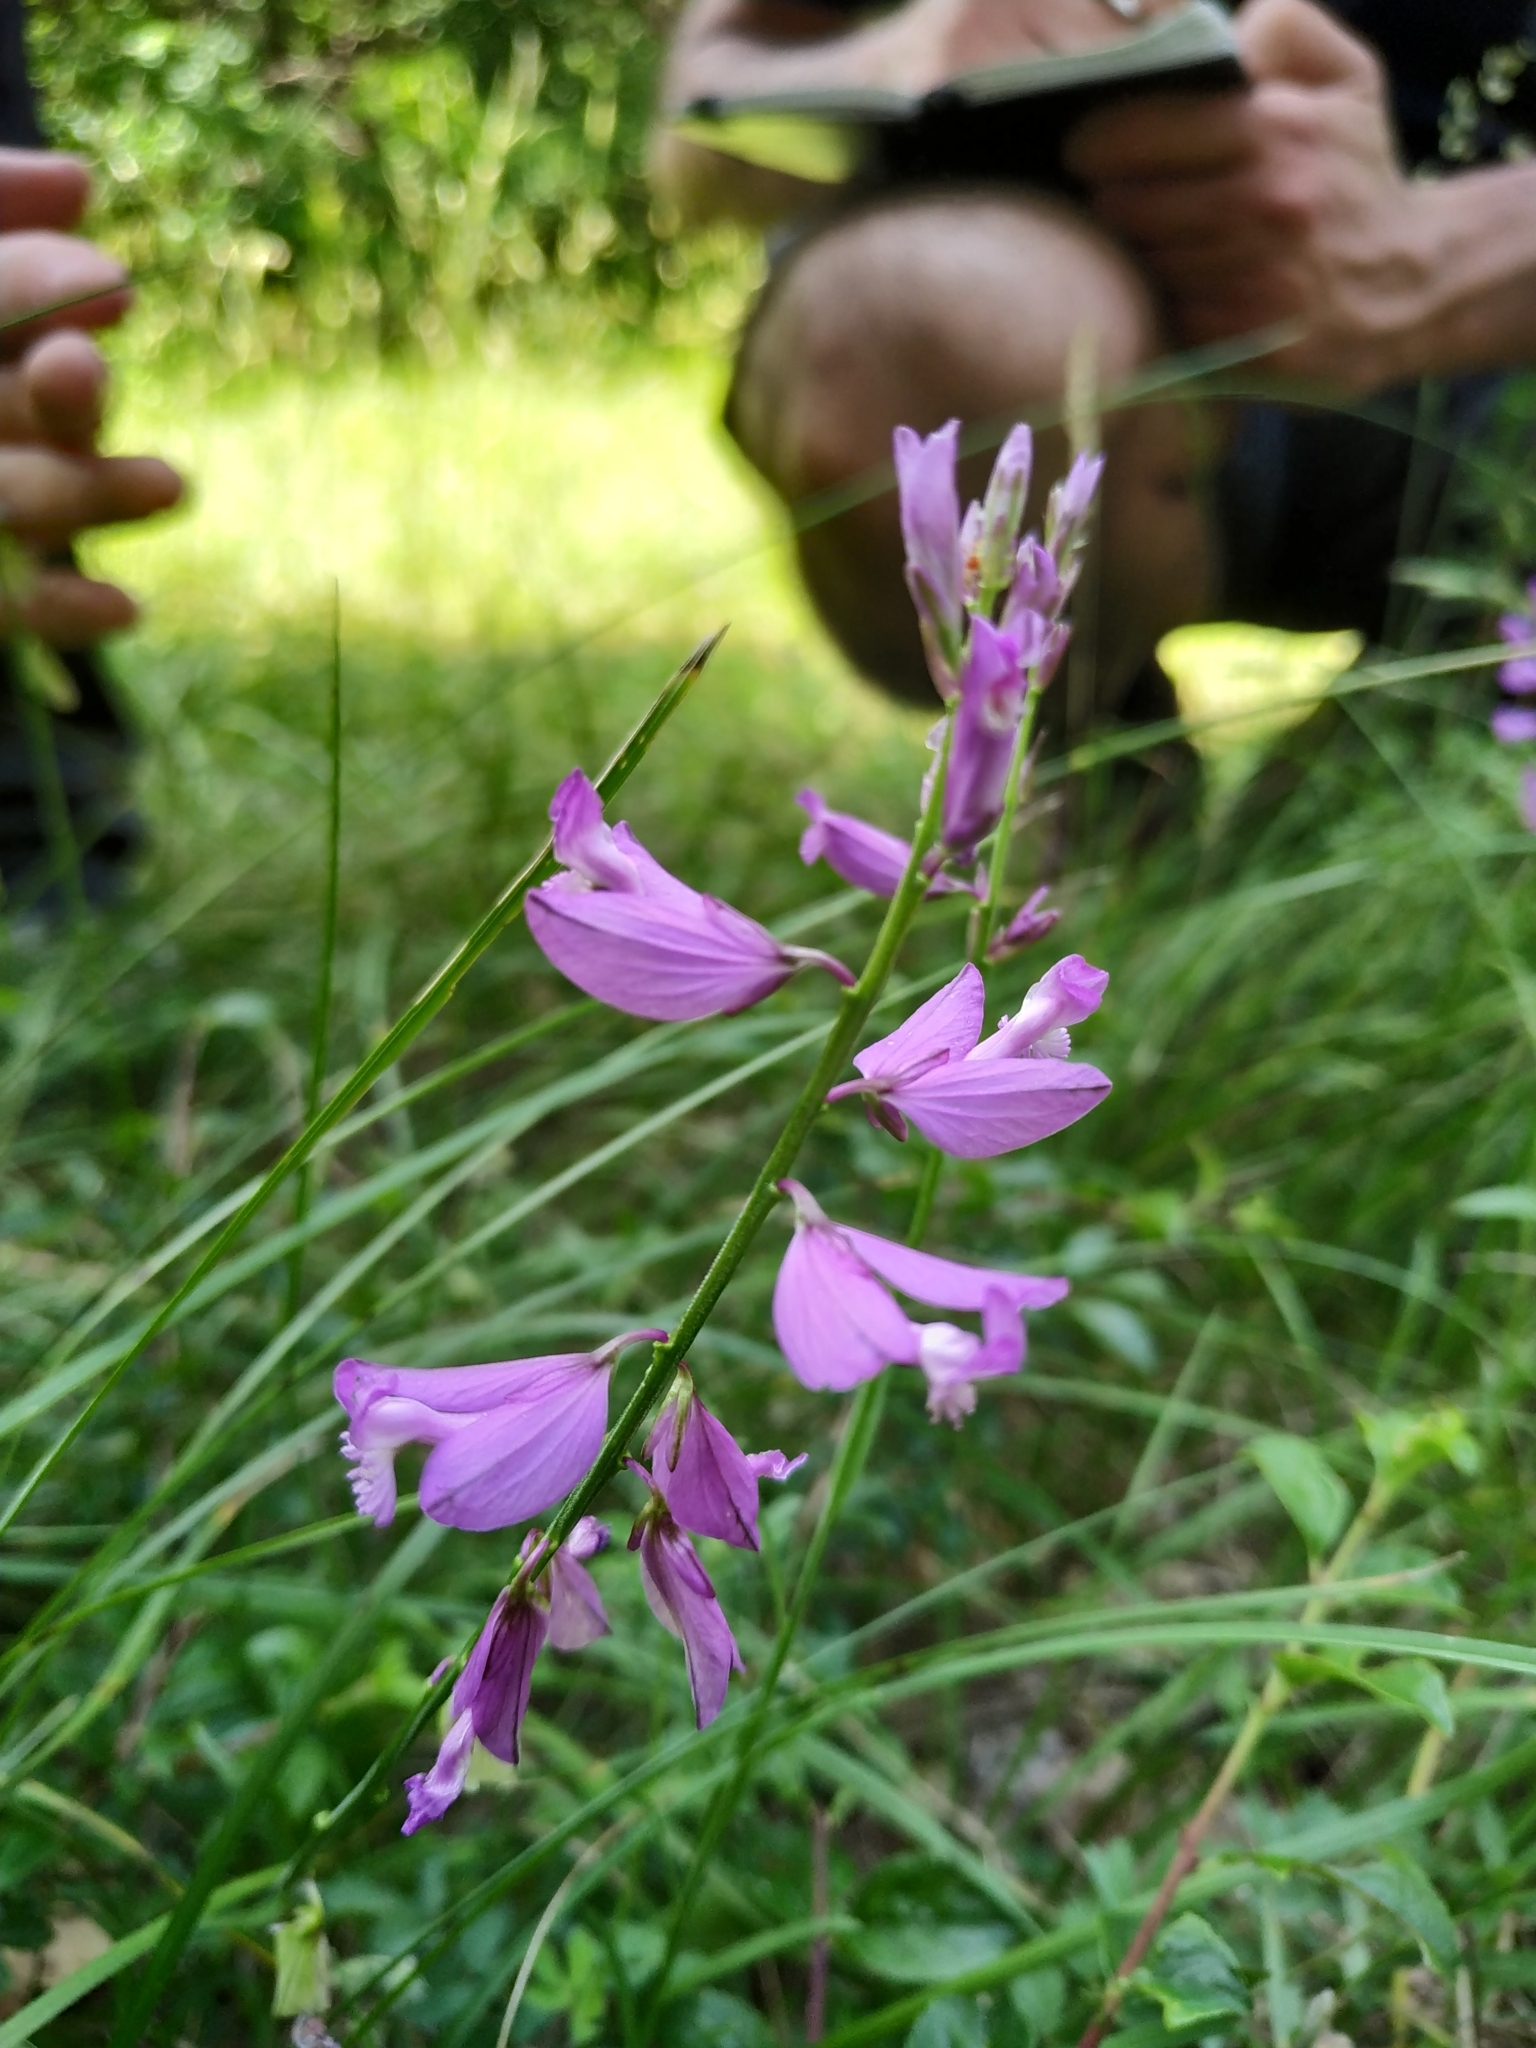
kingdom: Plantae
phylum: Tracheophyta
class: Magnoliopsida
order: Fabales
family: Polygalaceae
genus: Polygala
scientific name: Polygala nicaeensis
